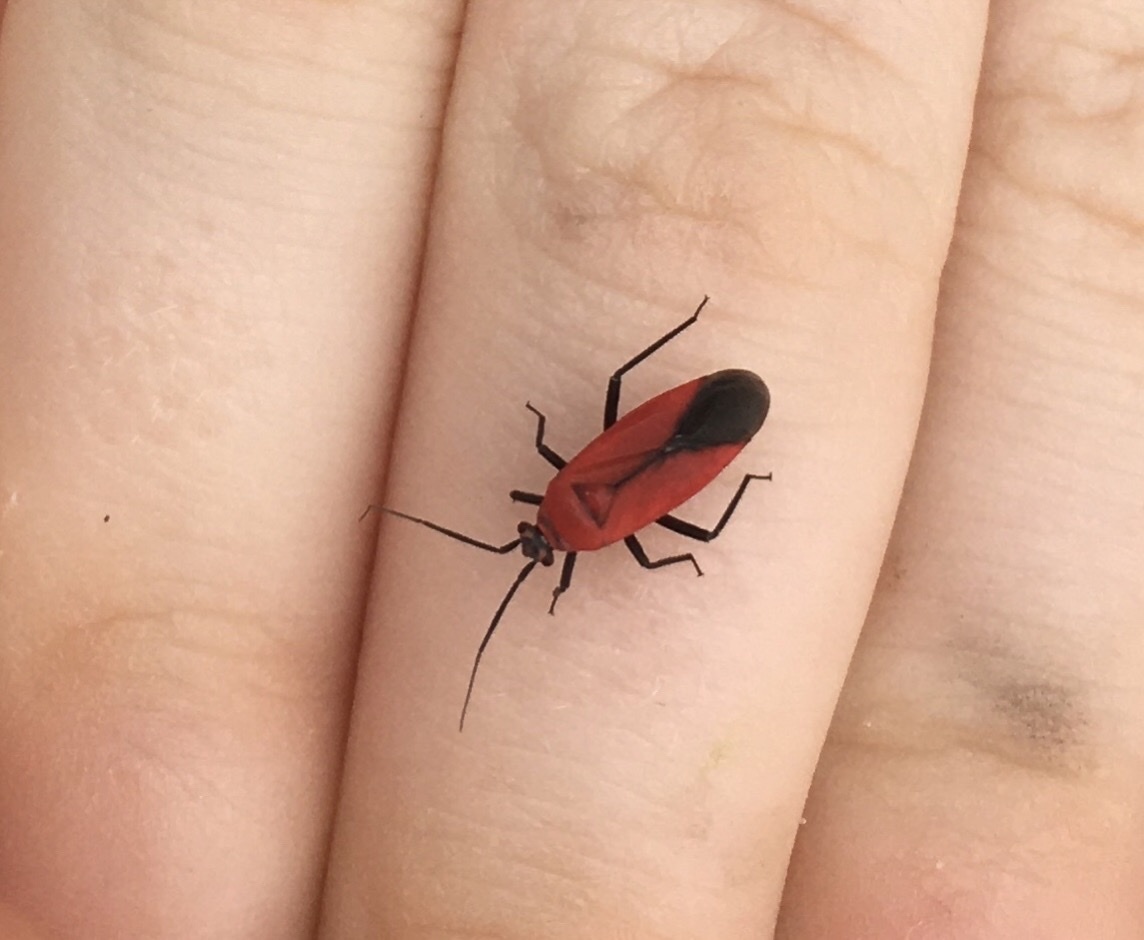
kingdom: Animalia
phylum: Arthropoda
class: Insecta
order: Hemiptera
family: Miridae
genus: Lopidea
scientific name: Lopidea major
